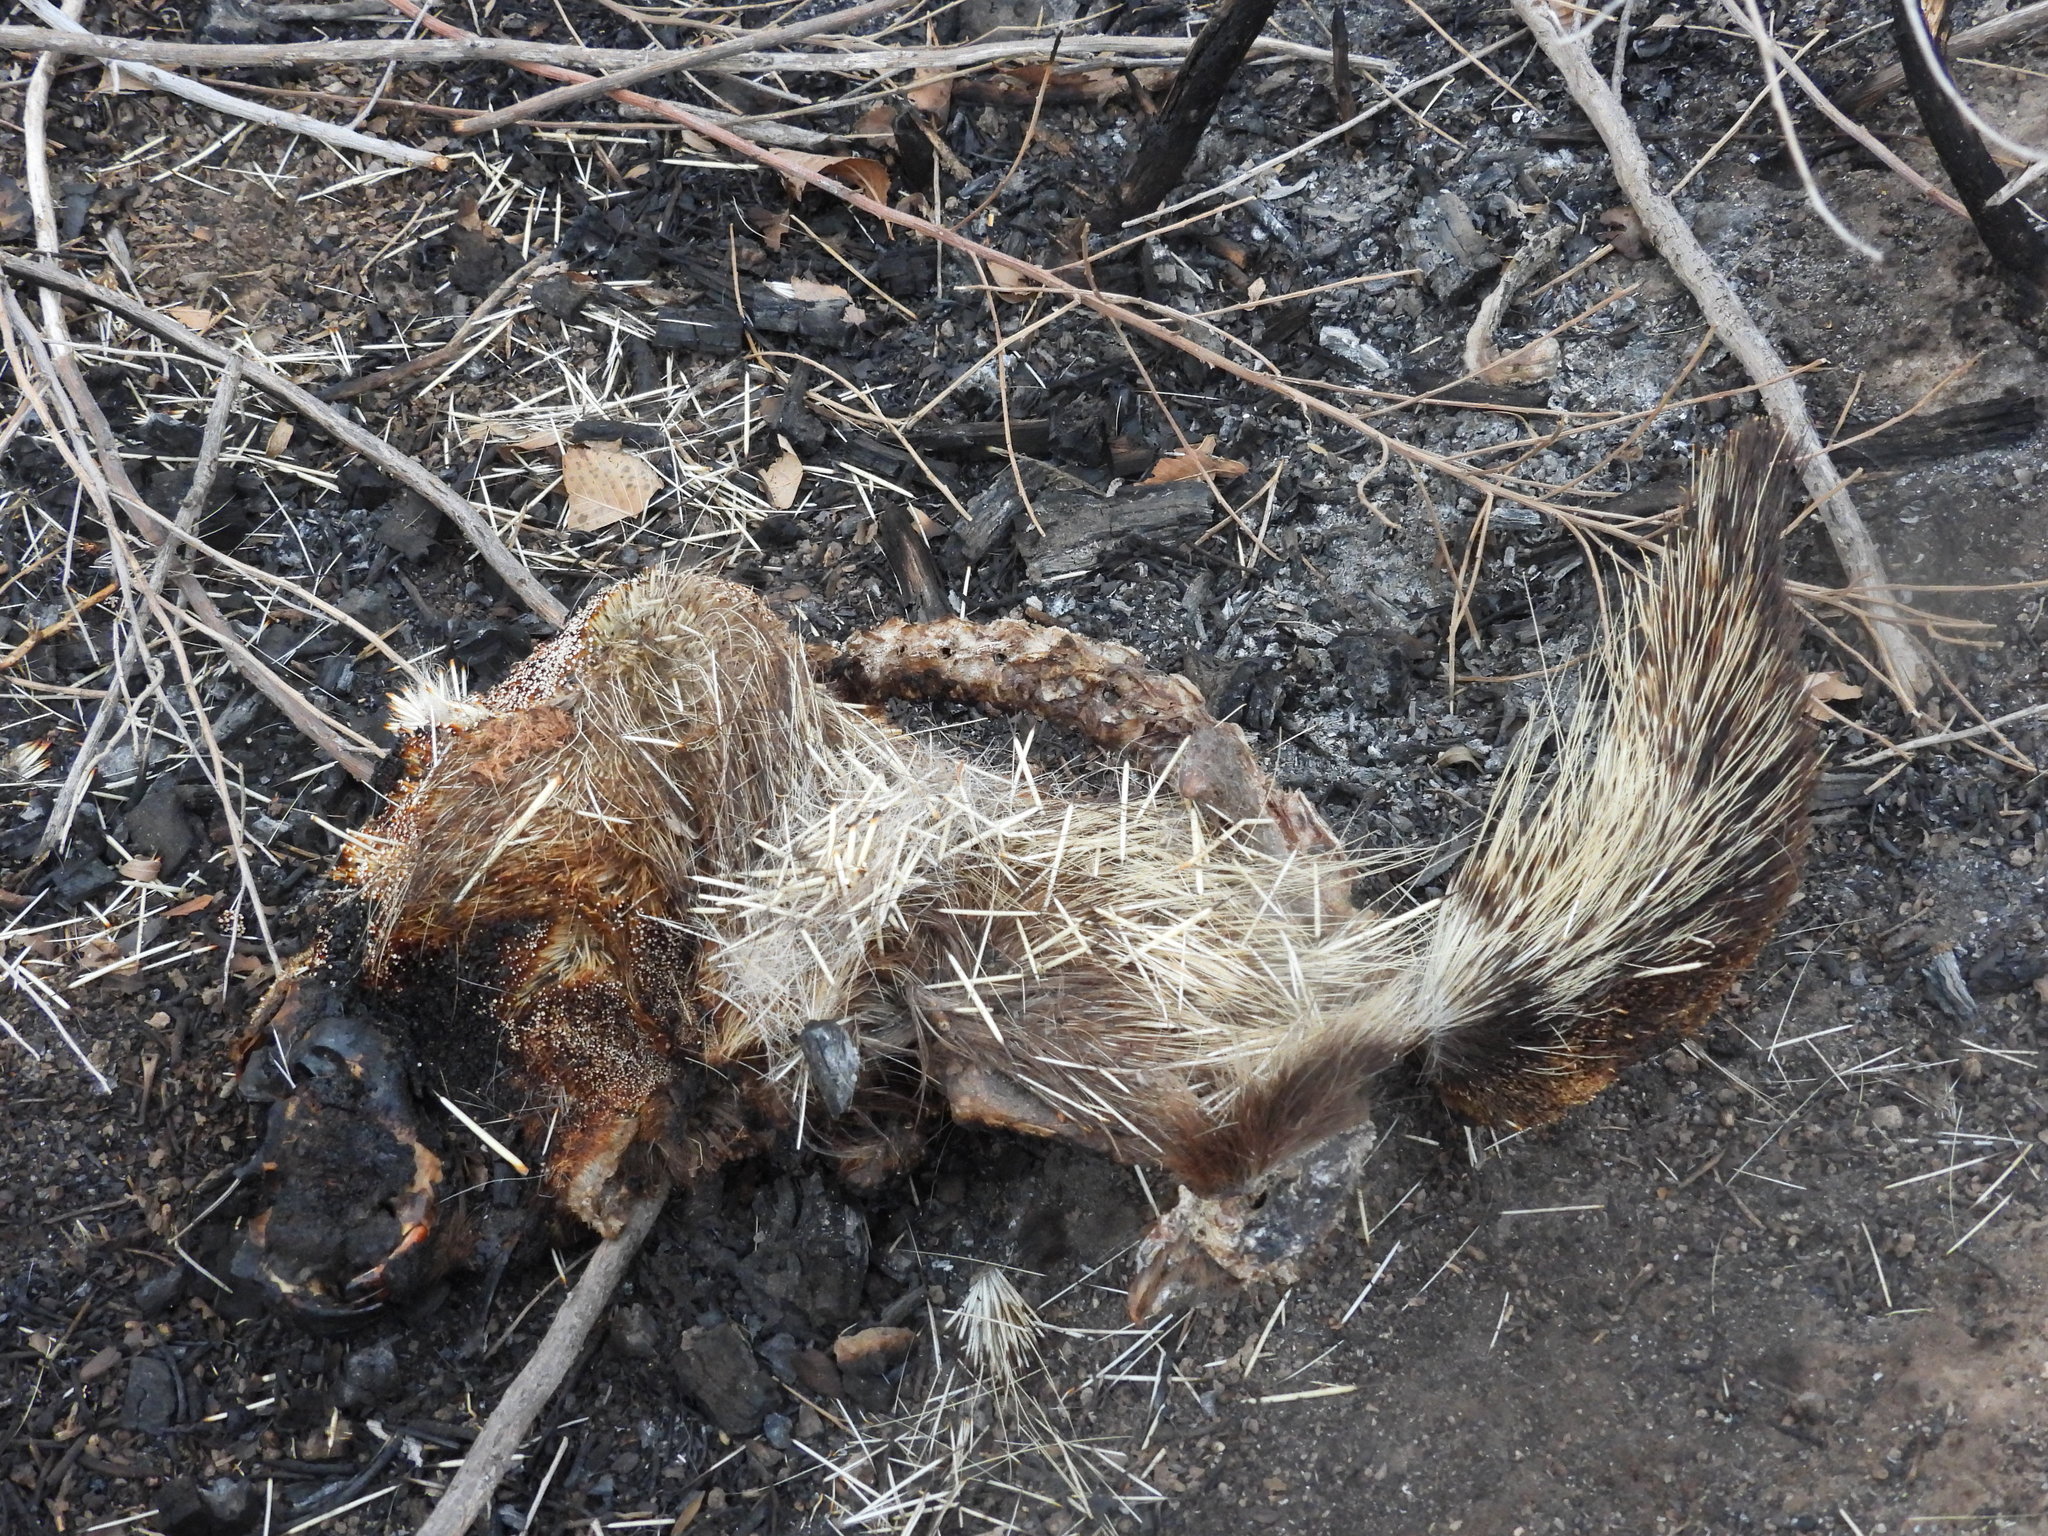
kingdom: Animalia
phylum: Chordata
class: Mammalia
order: Rodentia
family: Erethizontidae
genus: Erethizon
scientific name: Erethizon dorsatus
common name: North american porcupine
